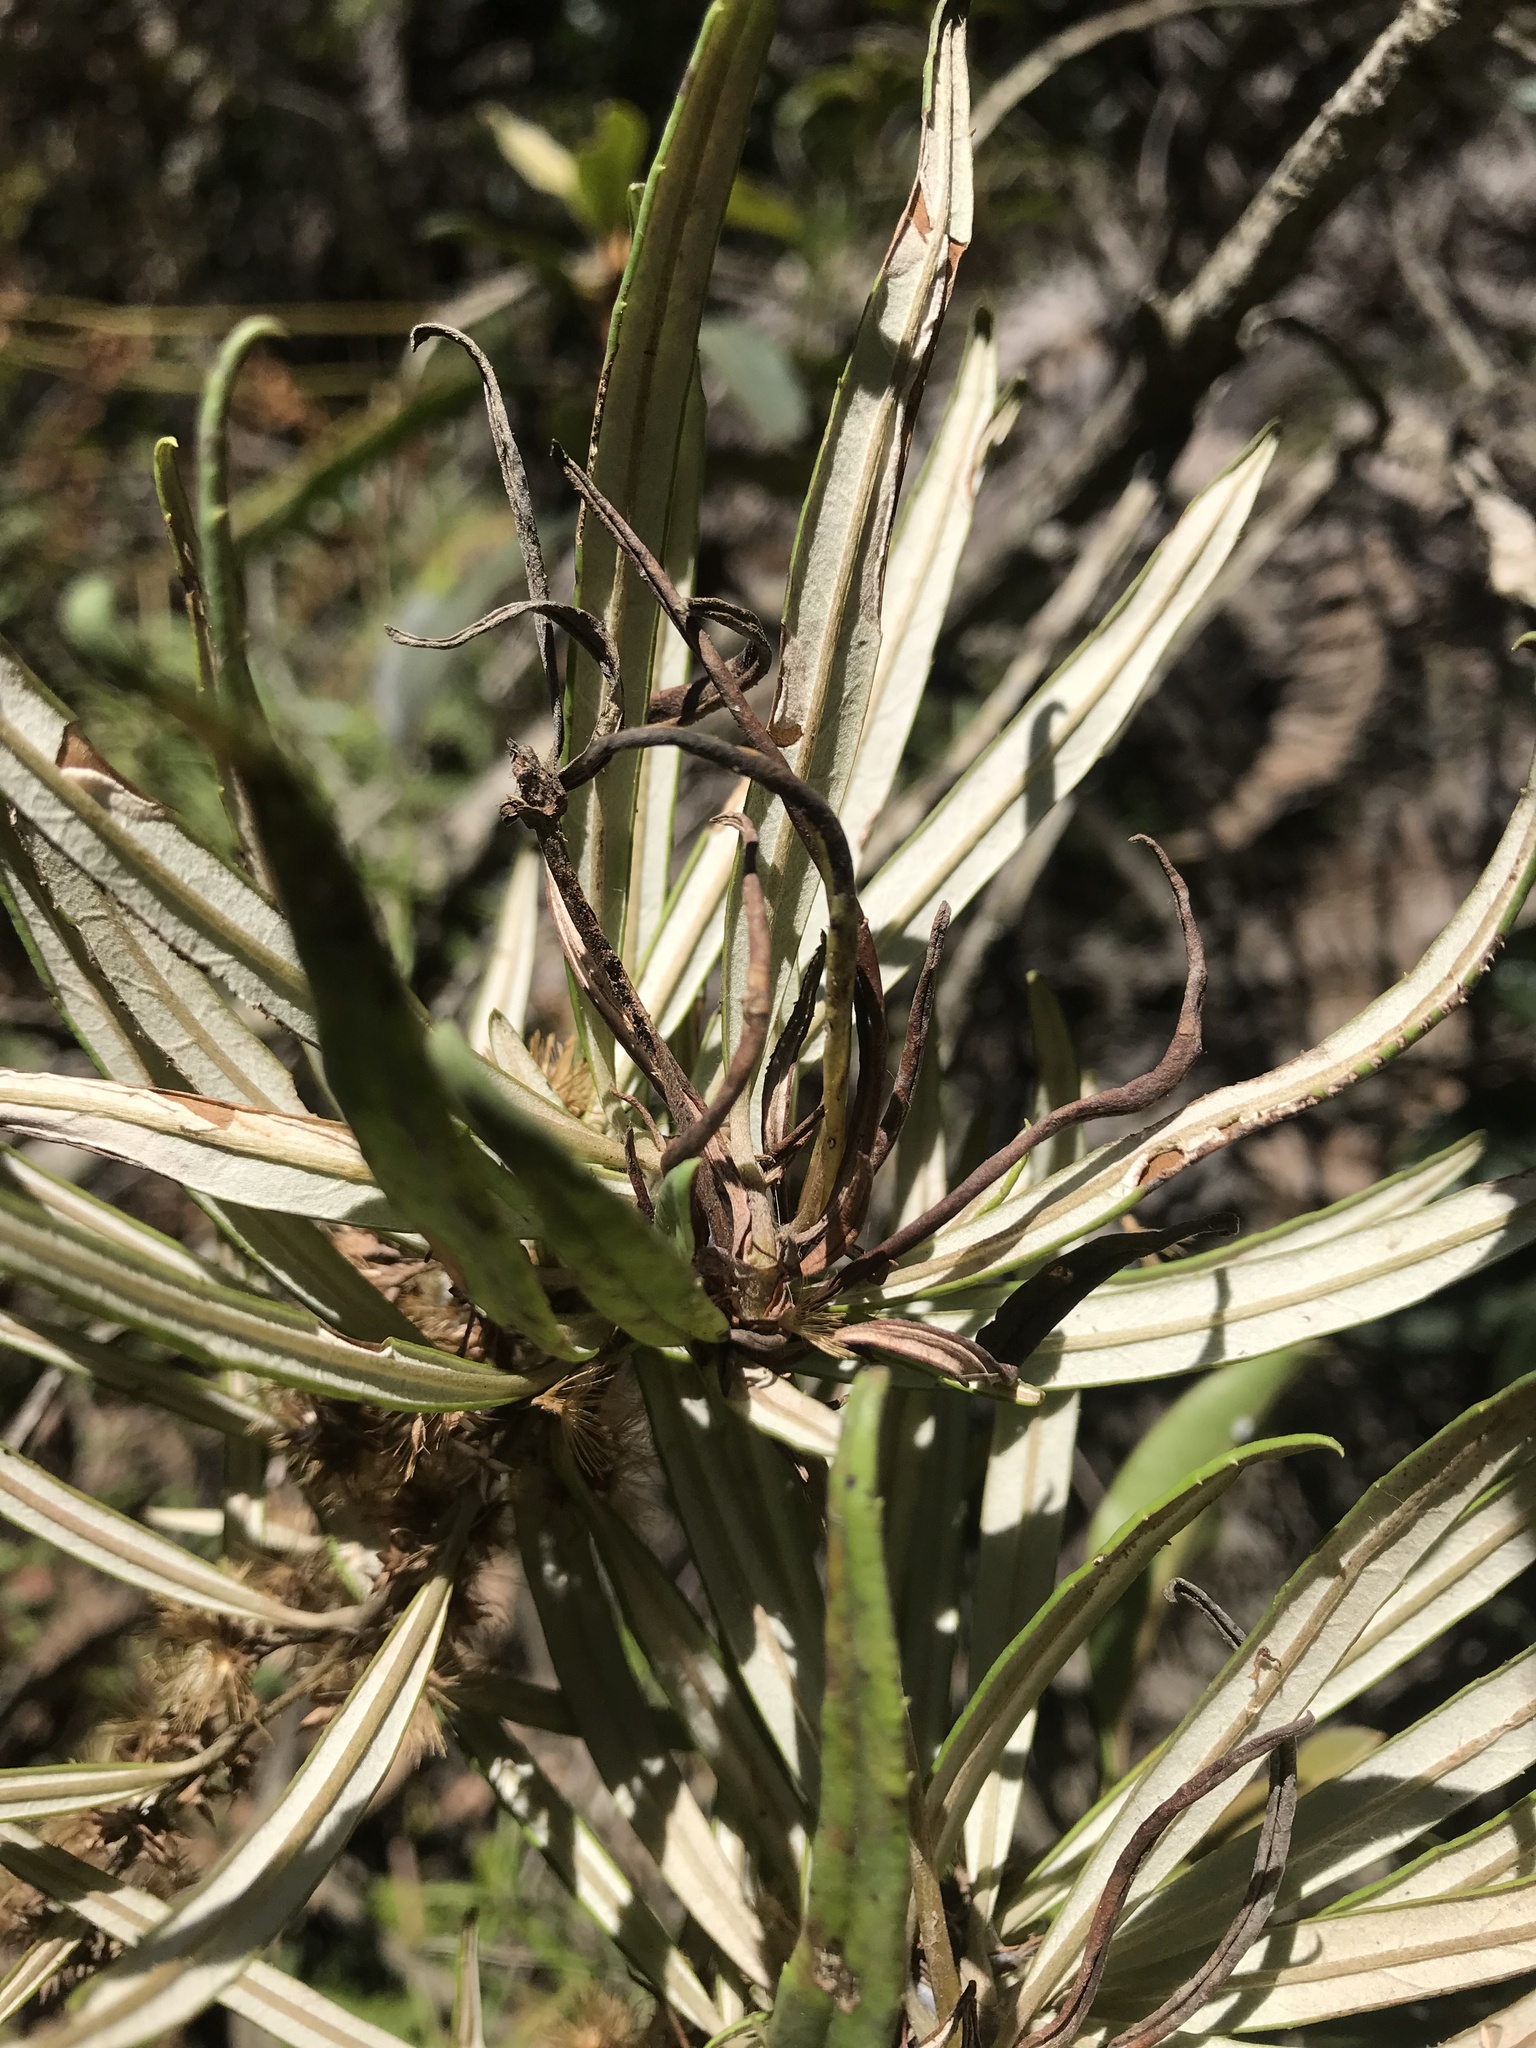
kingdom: Plantae
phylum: Tracheophyta
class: Magnoliopsida
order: Asterales
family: Asteraceae
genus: Oligactis
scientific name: Oligactis garcia-barrigae
